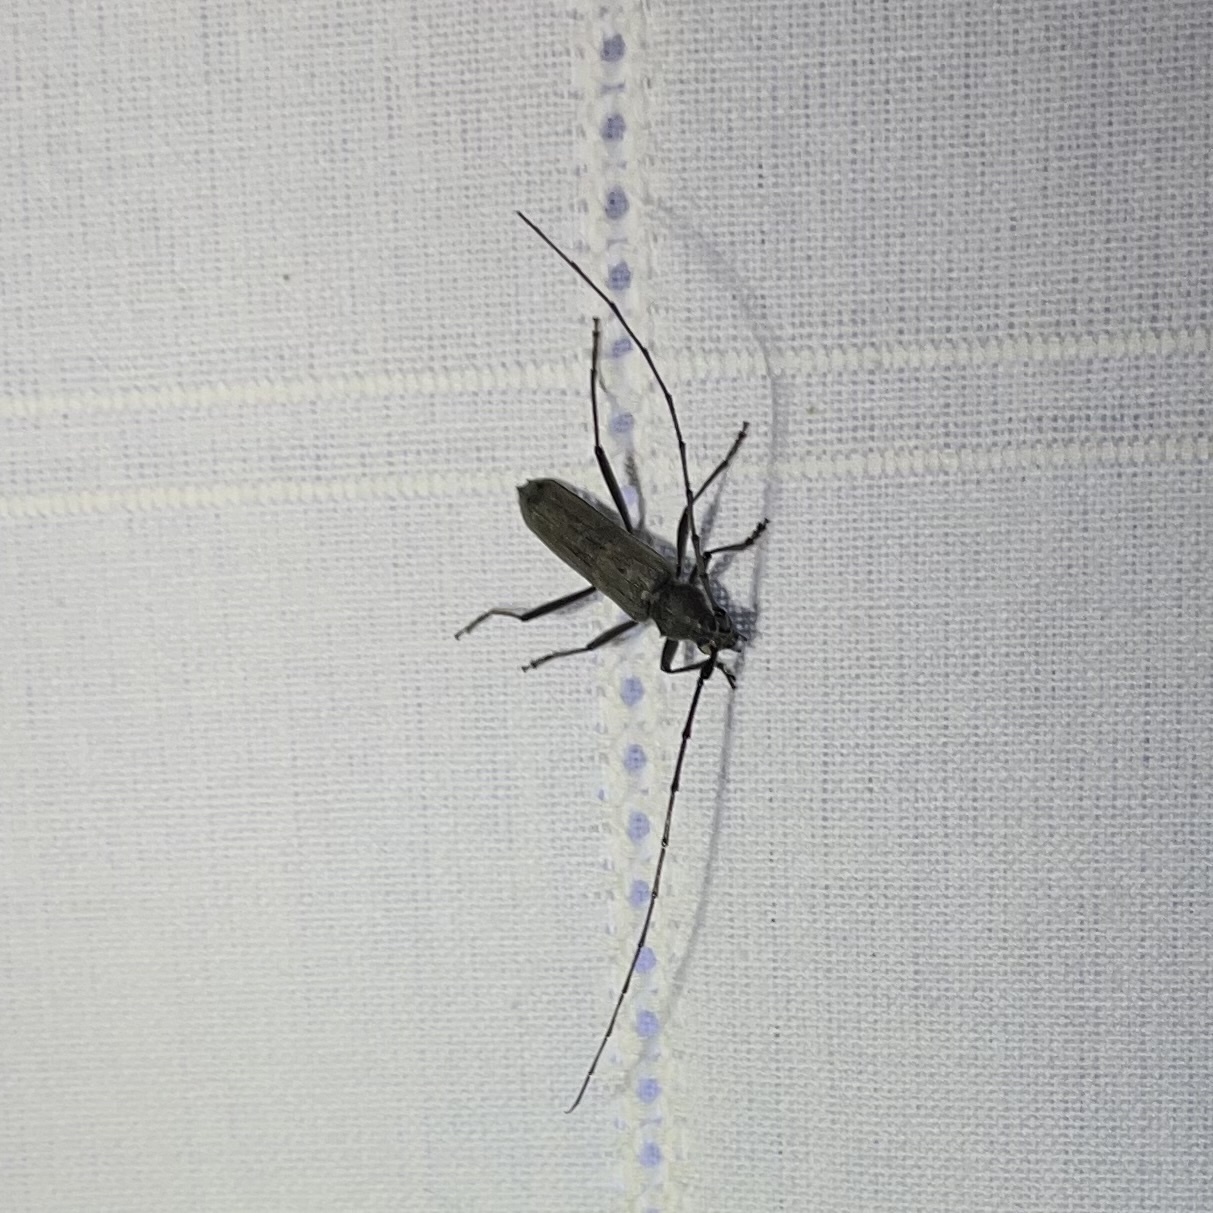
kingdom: Animalia
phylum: Arthropoda
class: Insecta
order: Coleoptera
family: Cerambycidae
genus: Knulliana
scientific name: Knulliana cincta
